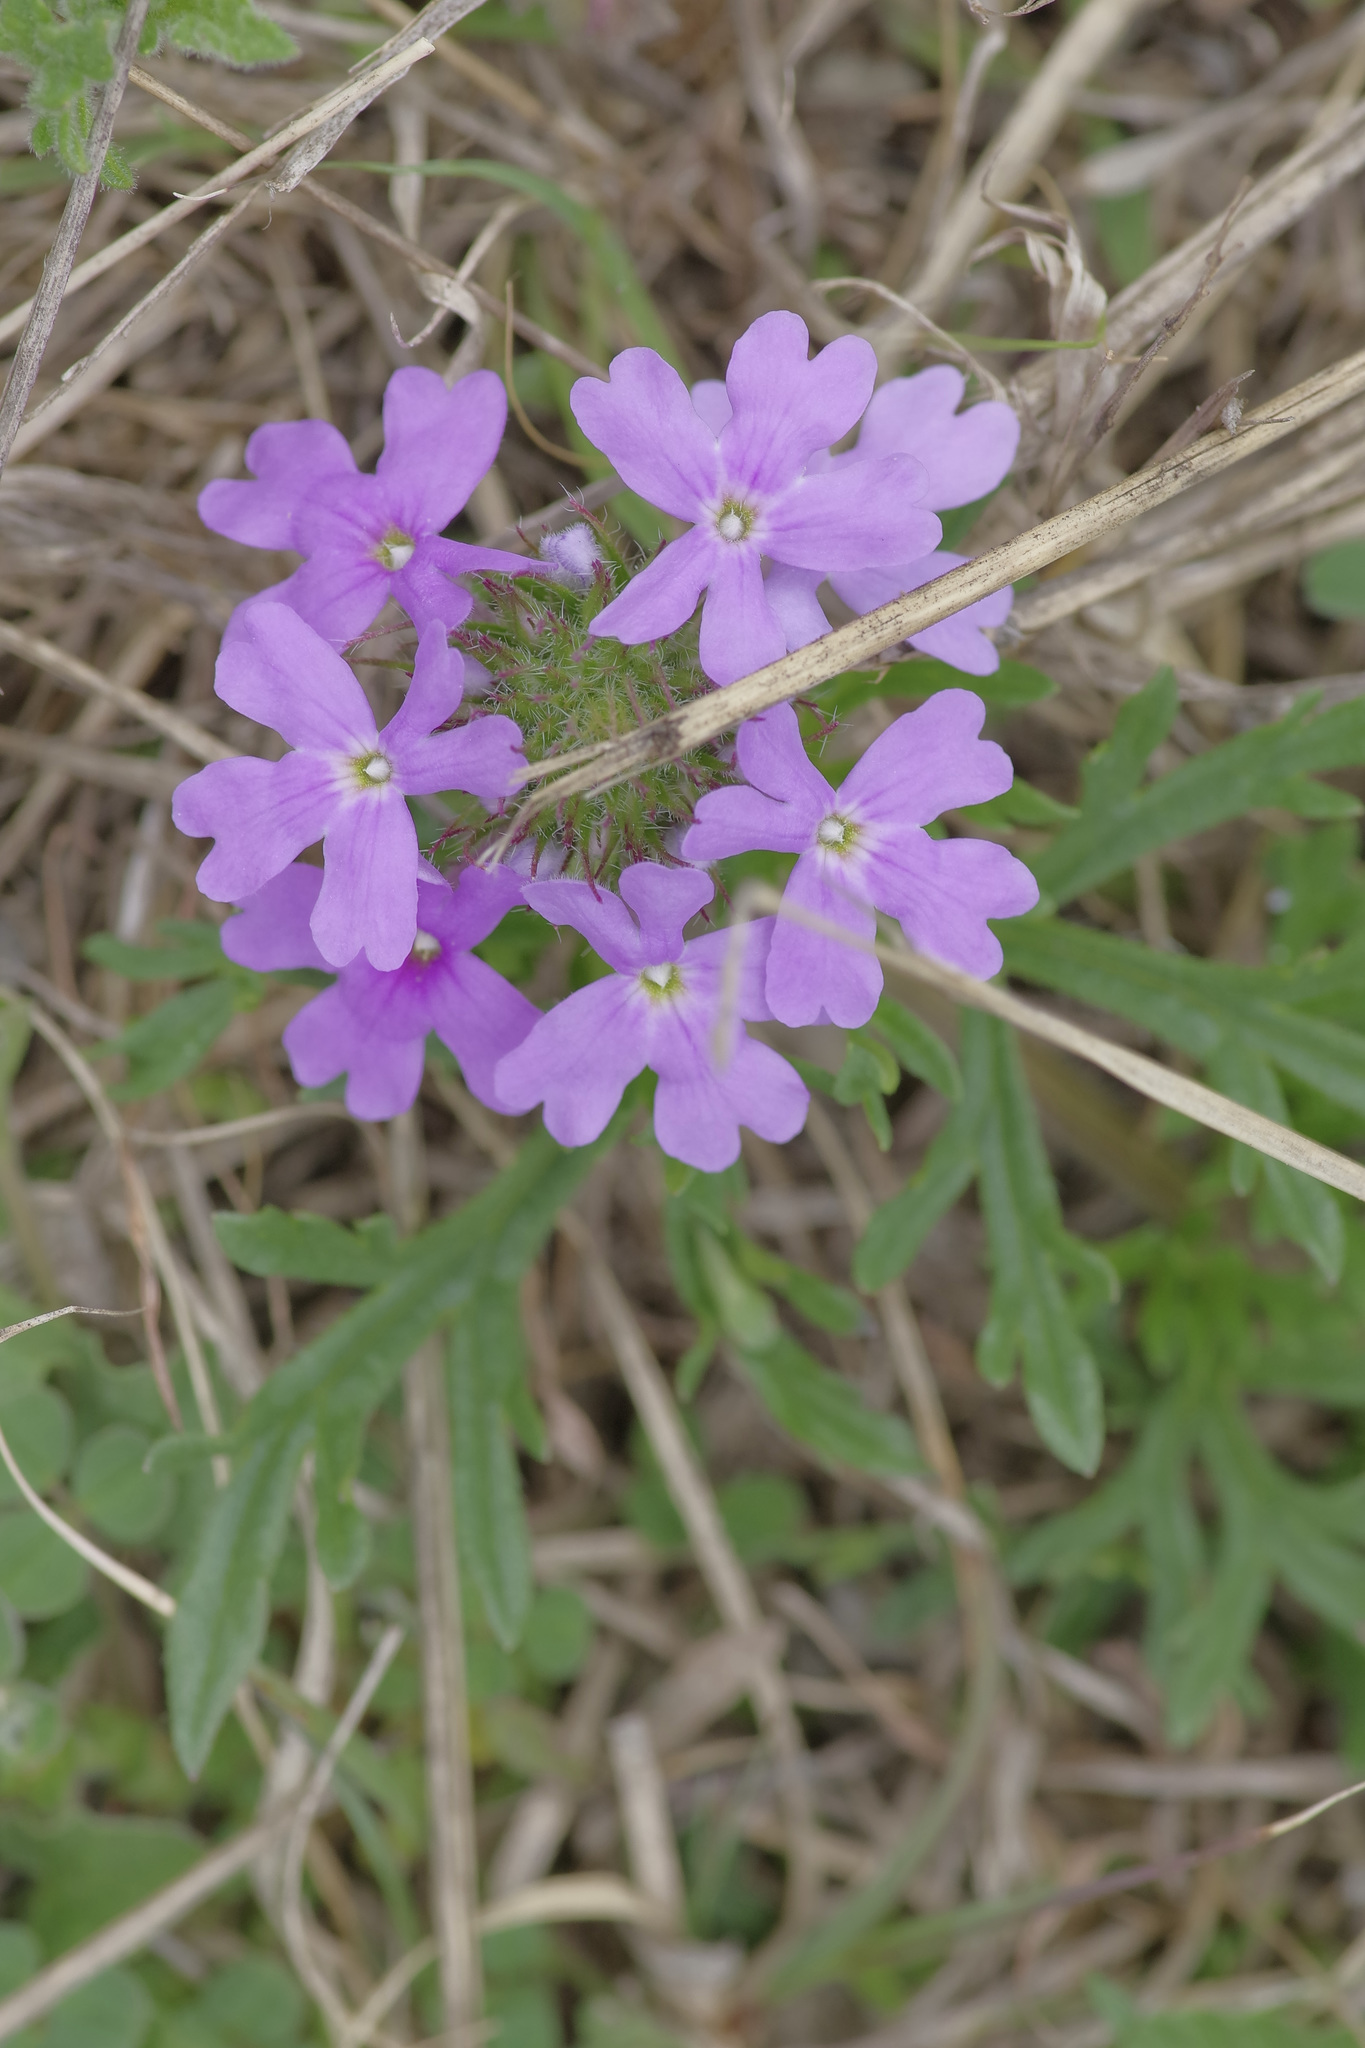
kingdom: Plantae
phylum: Tracheophyta
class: Magnoliopsida
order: Lamiales
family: Verbenaceae
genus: Verbena
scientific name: Verbena bipinnatifida
